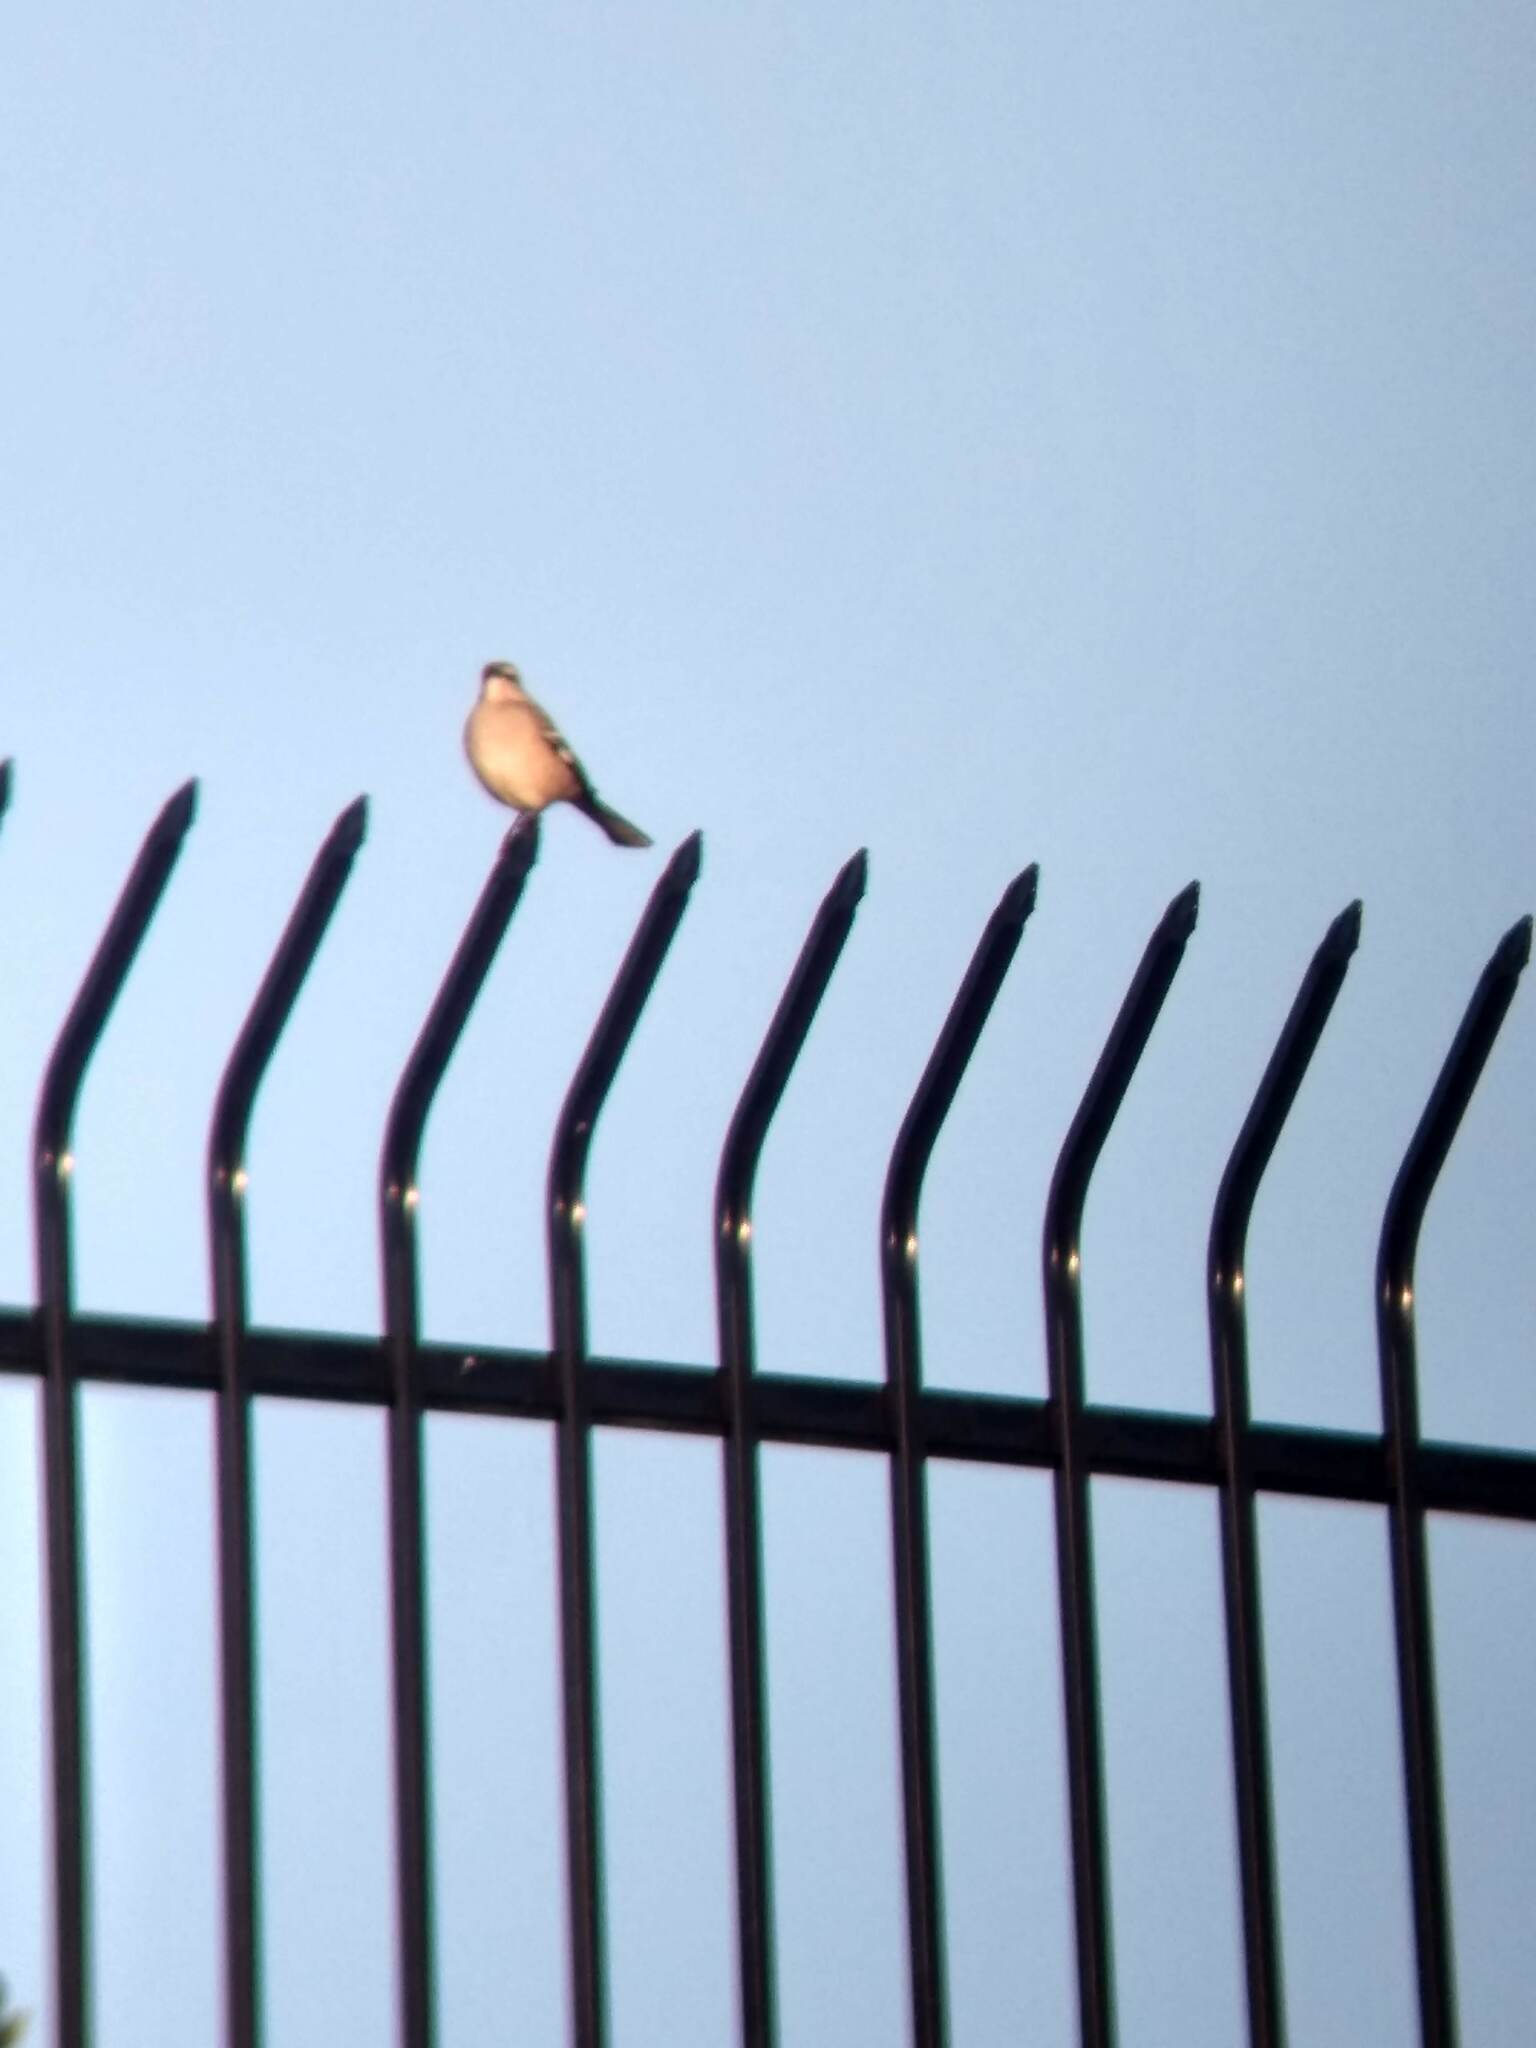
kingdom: Animalia
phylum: Chordata
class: Aves
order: Passeriformes
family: Mimidae
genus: Mimus
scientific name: Mimus polyglottos
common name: Northern mockingbird
